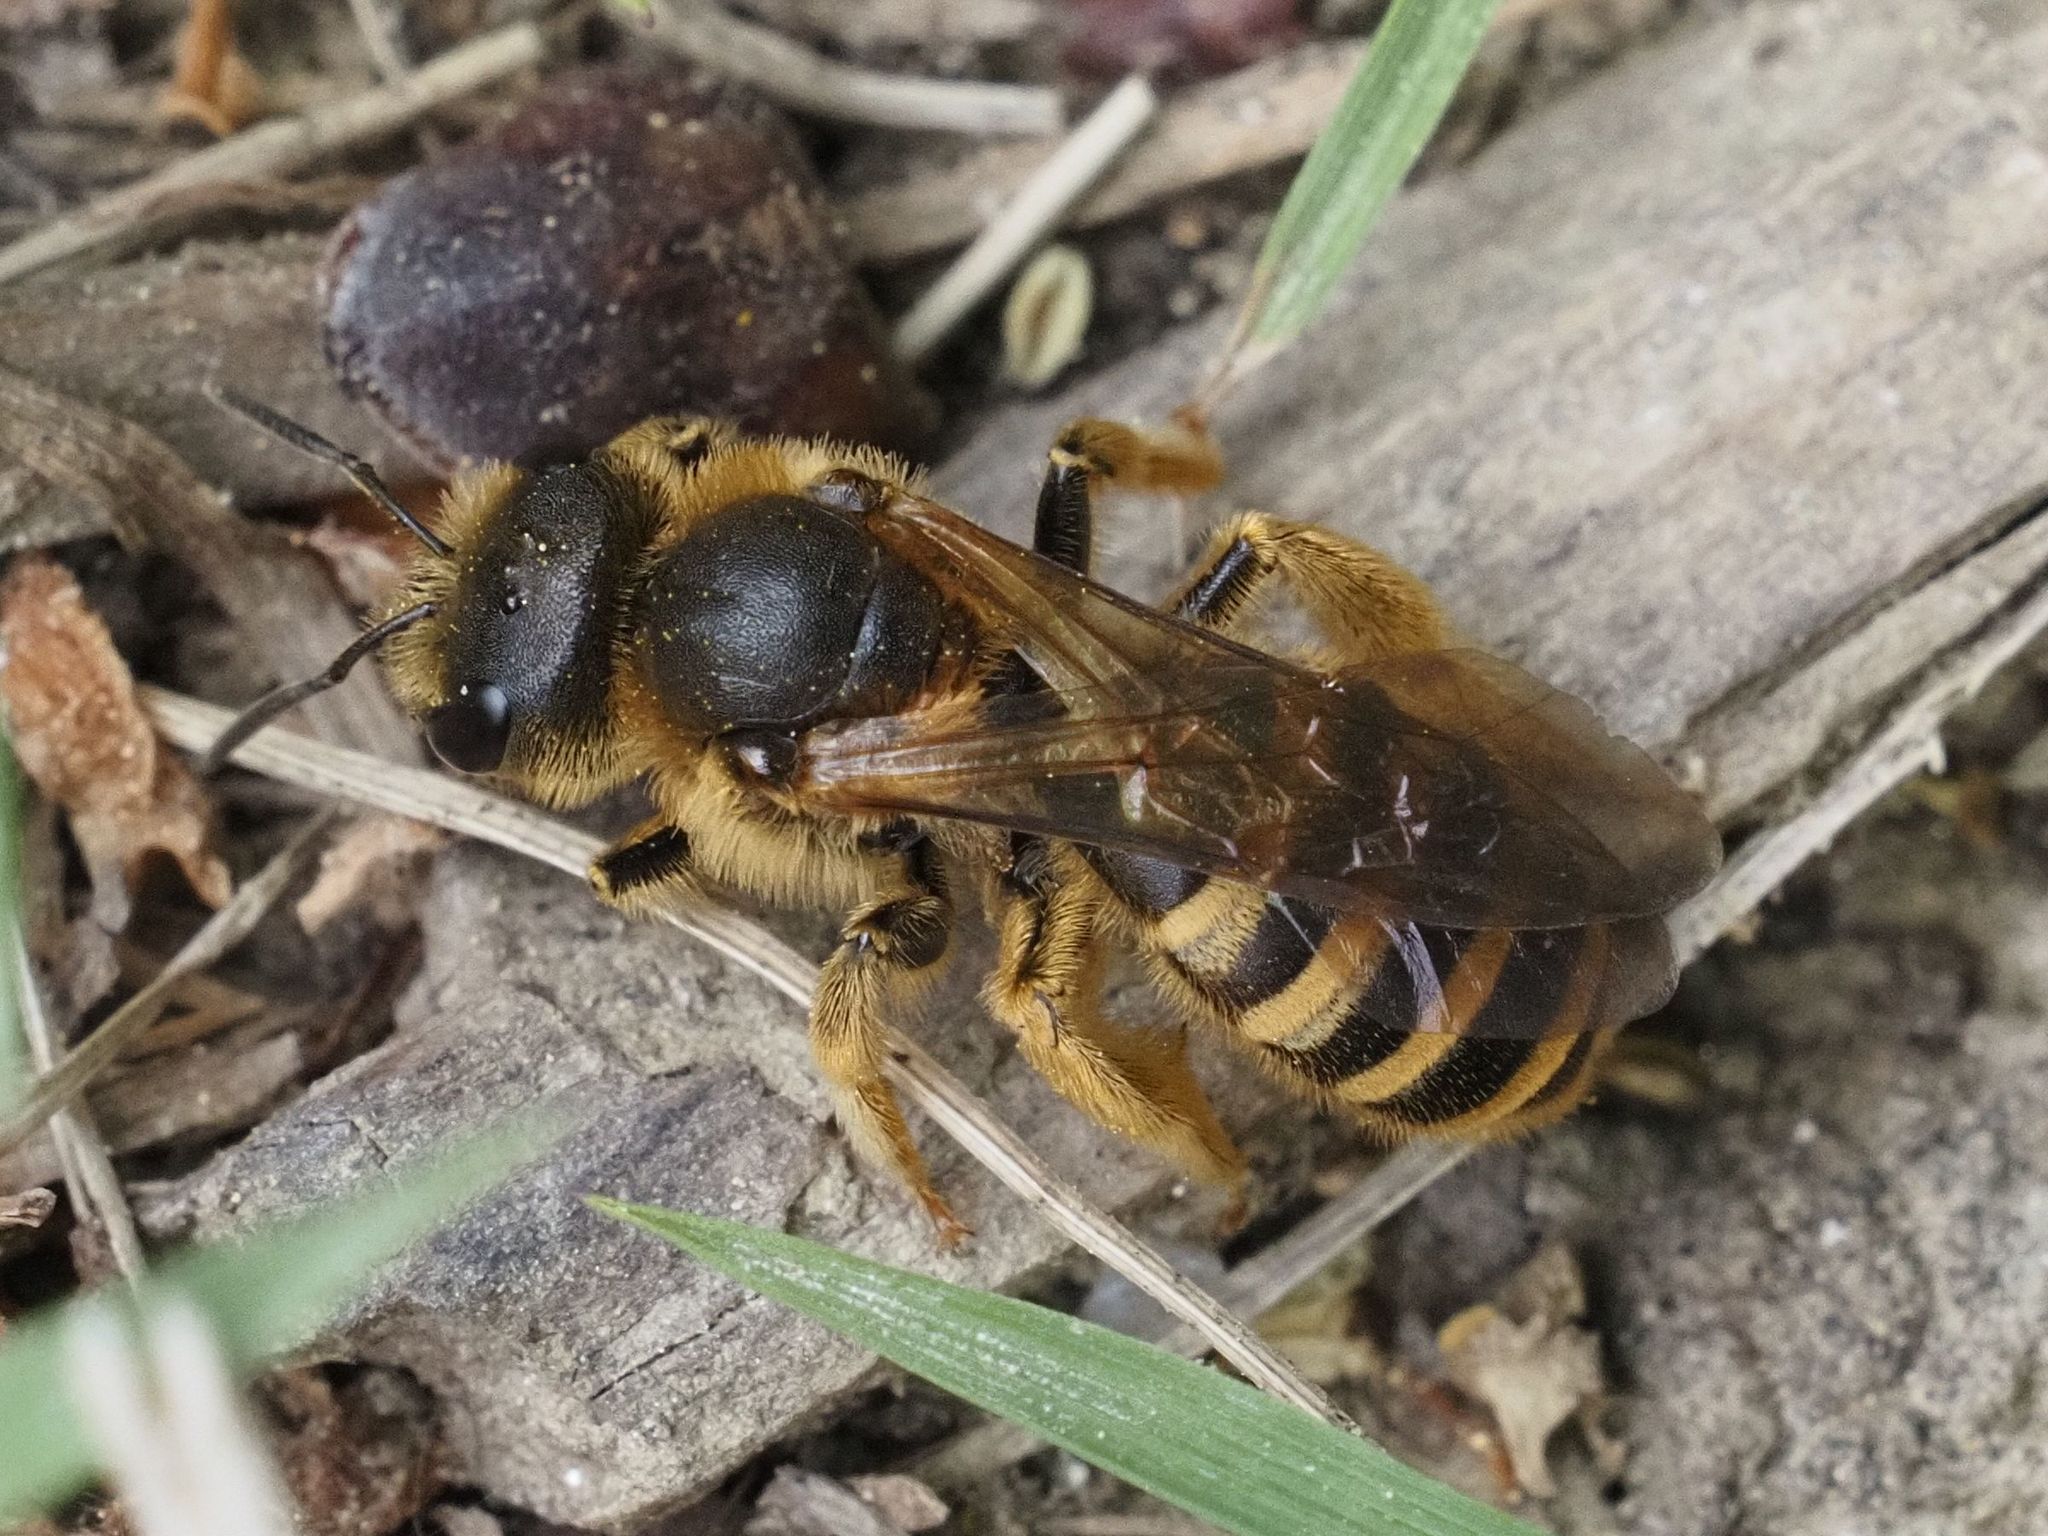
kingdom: Animalia
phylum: Arthropoda
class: Insecta
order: Hymenoptera
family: Halictidae
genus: Halictus
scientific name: Halictus scabiosae
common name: Great banded furrow bee
